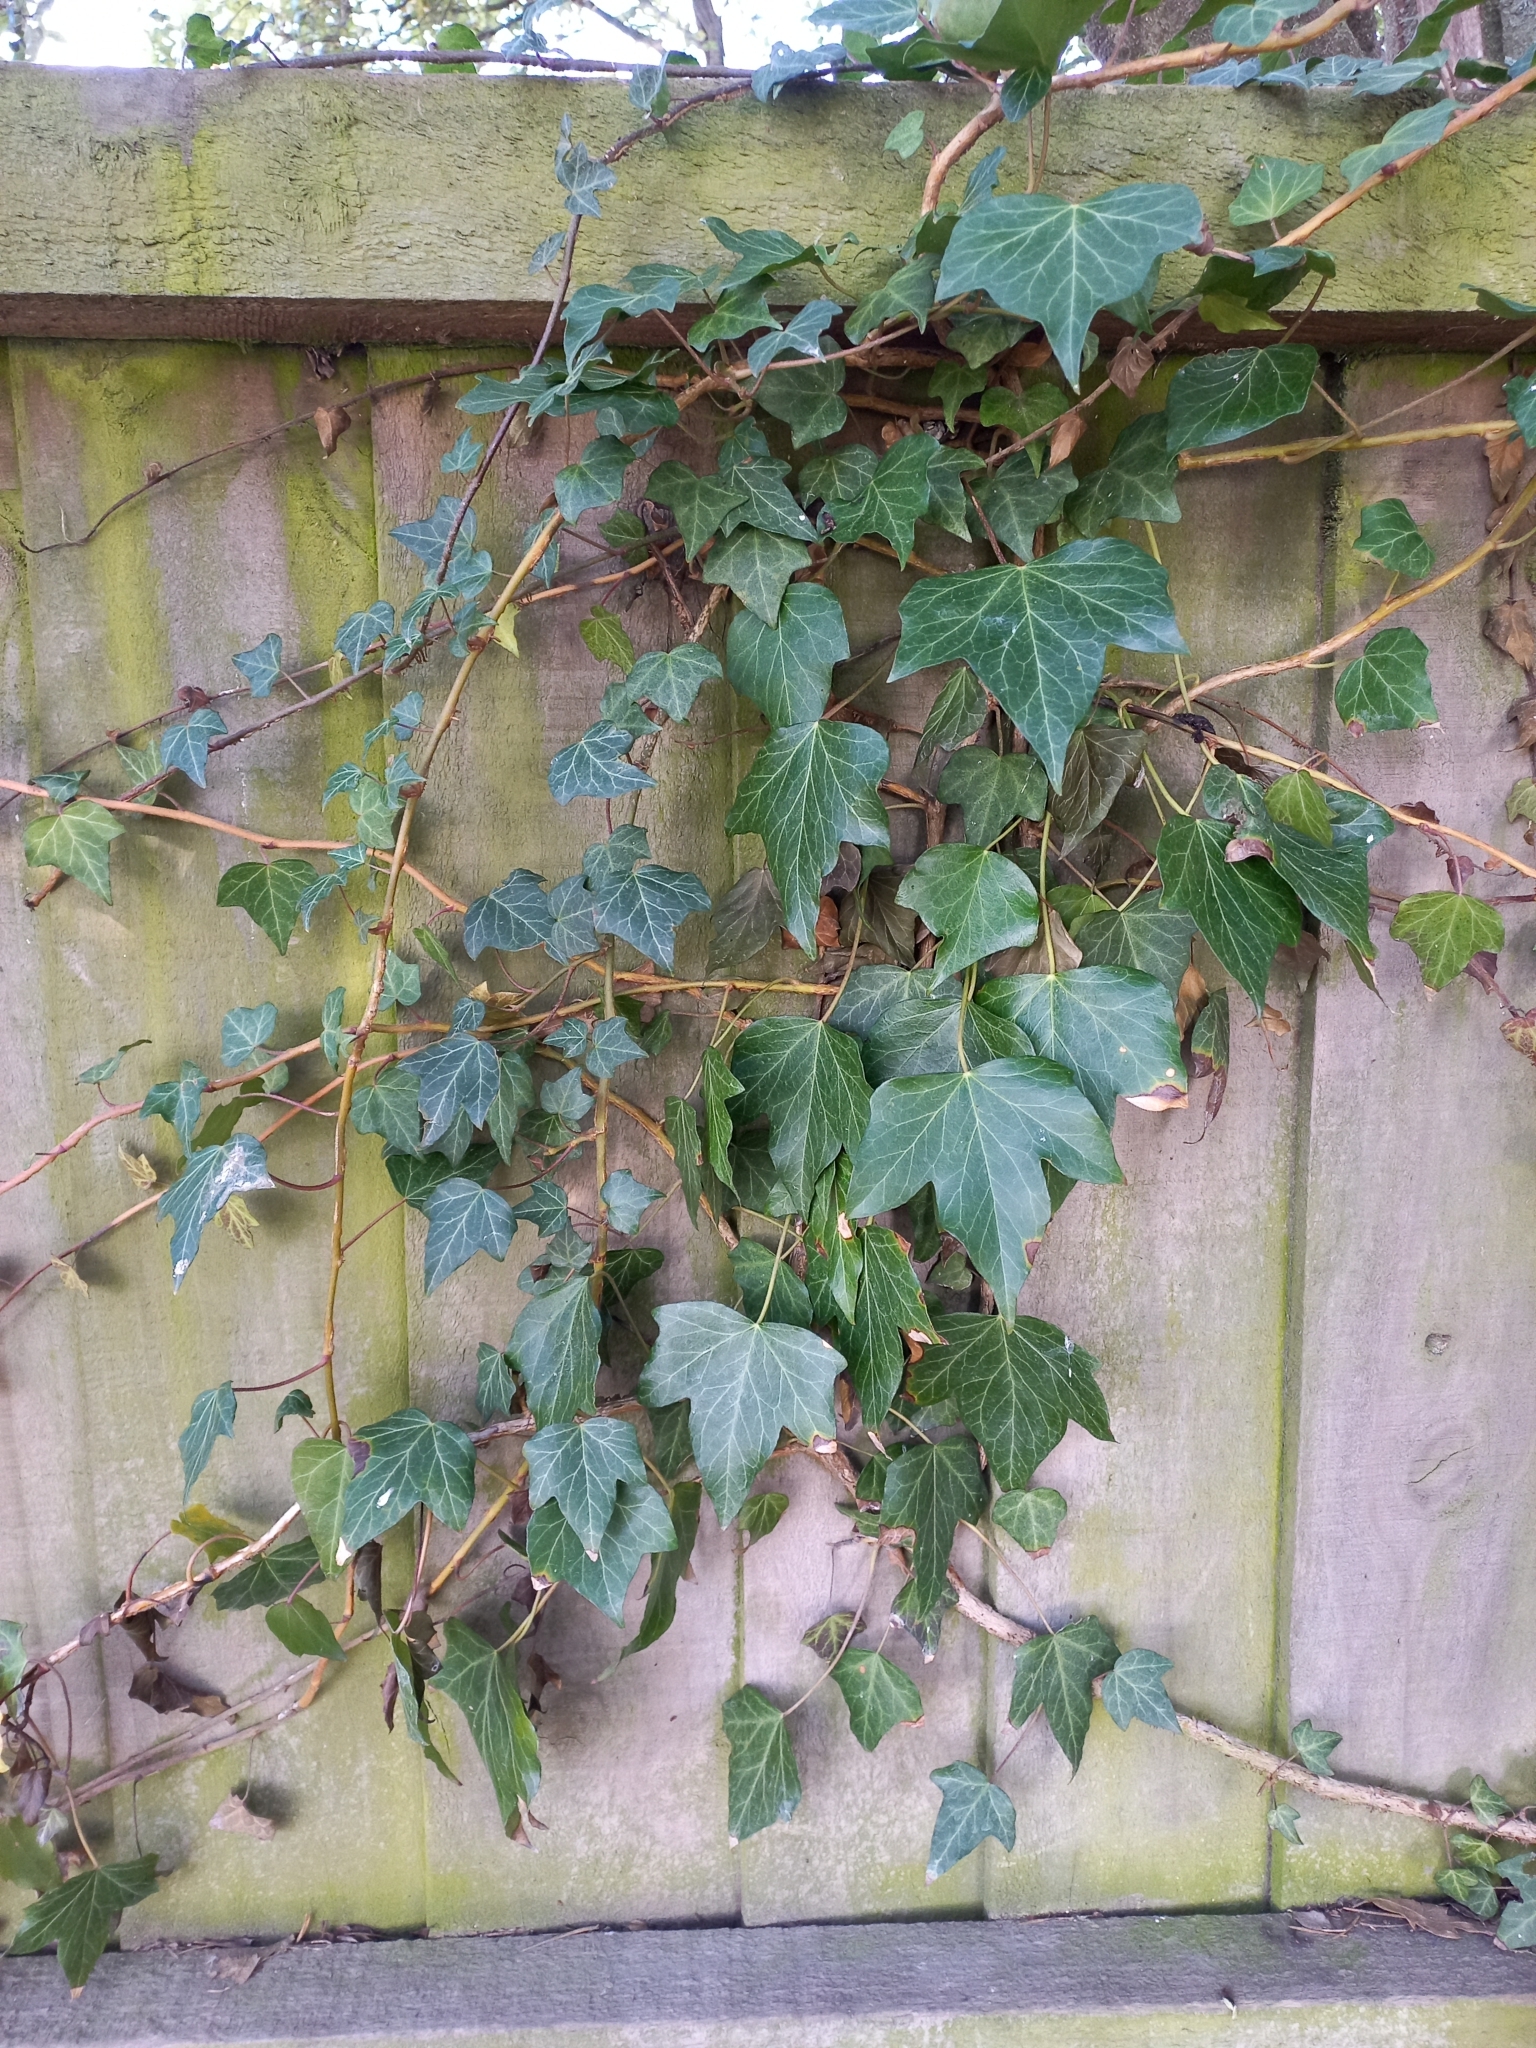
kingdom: Plantae
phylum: Tracheophyta
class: Magnoliopsida
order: Apiales
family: Araliaceae
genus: Hedera
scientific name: Hedera helix
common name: Ivy
